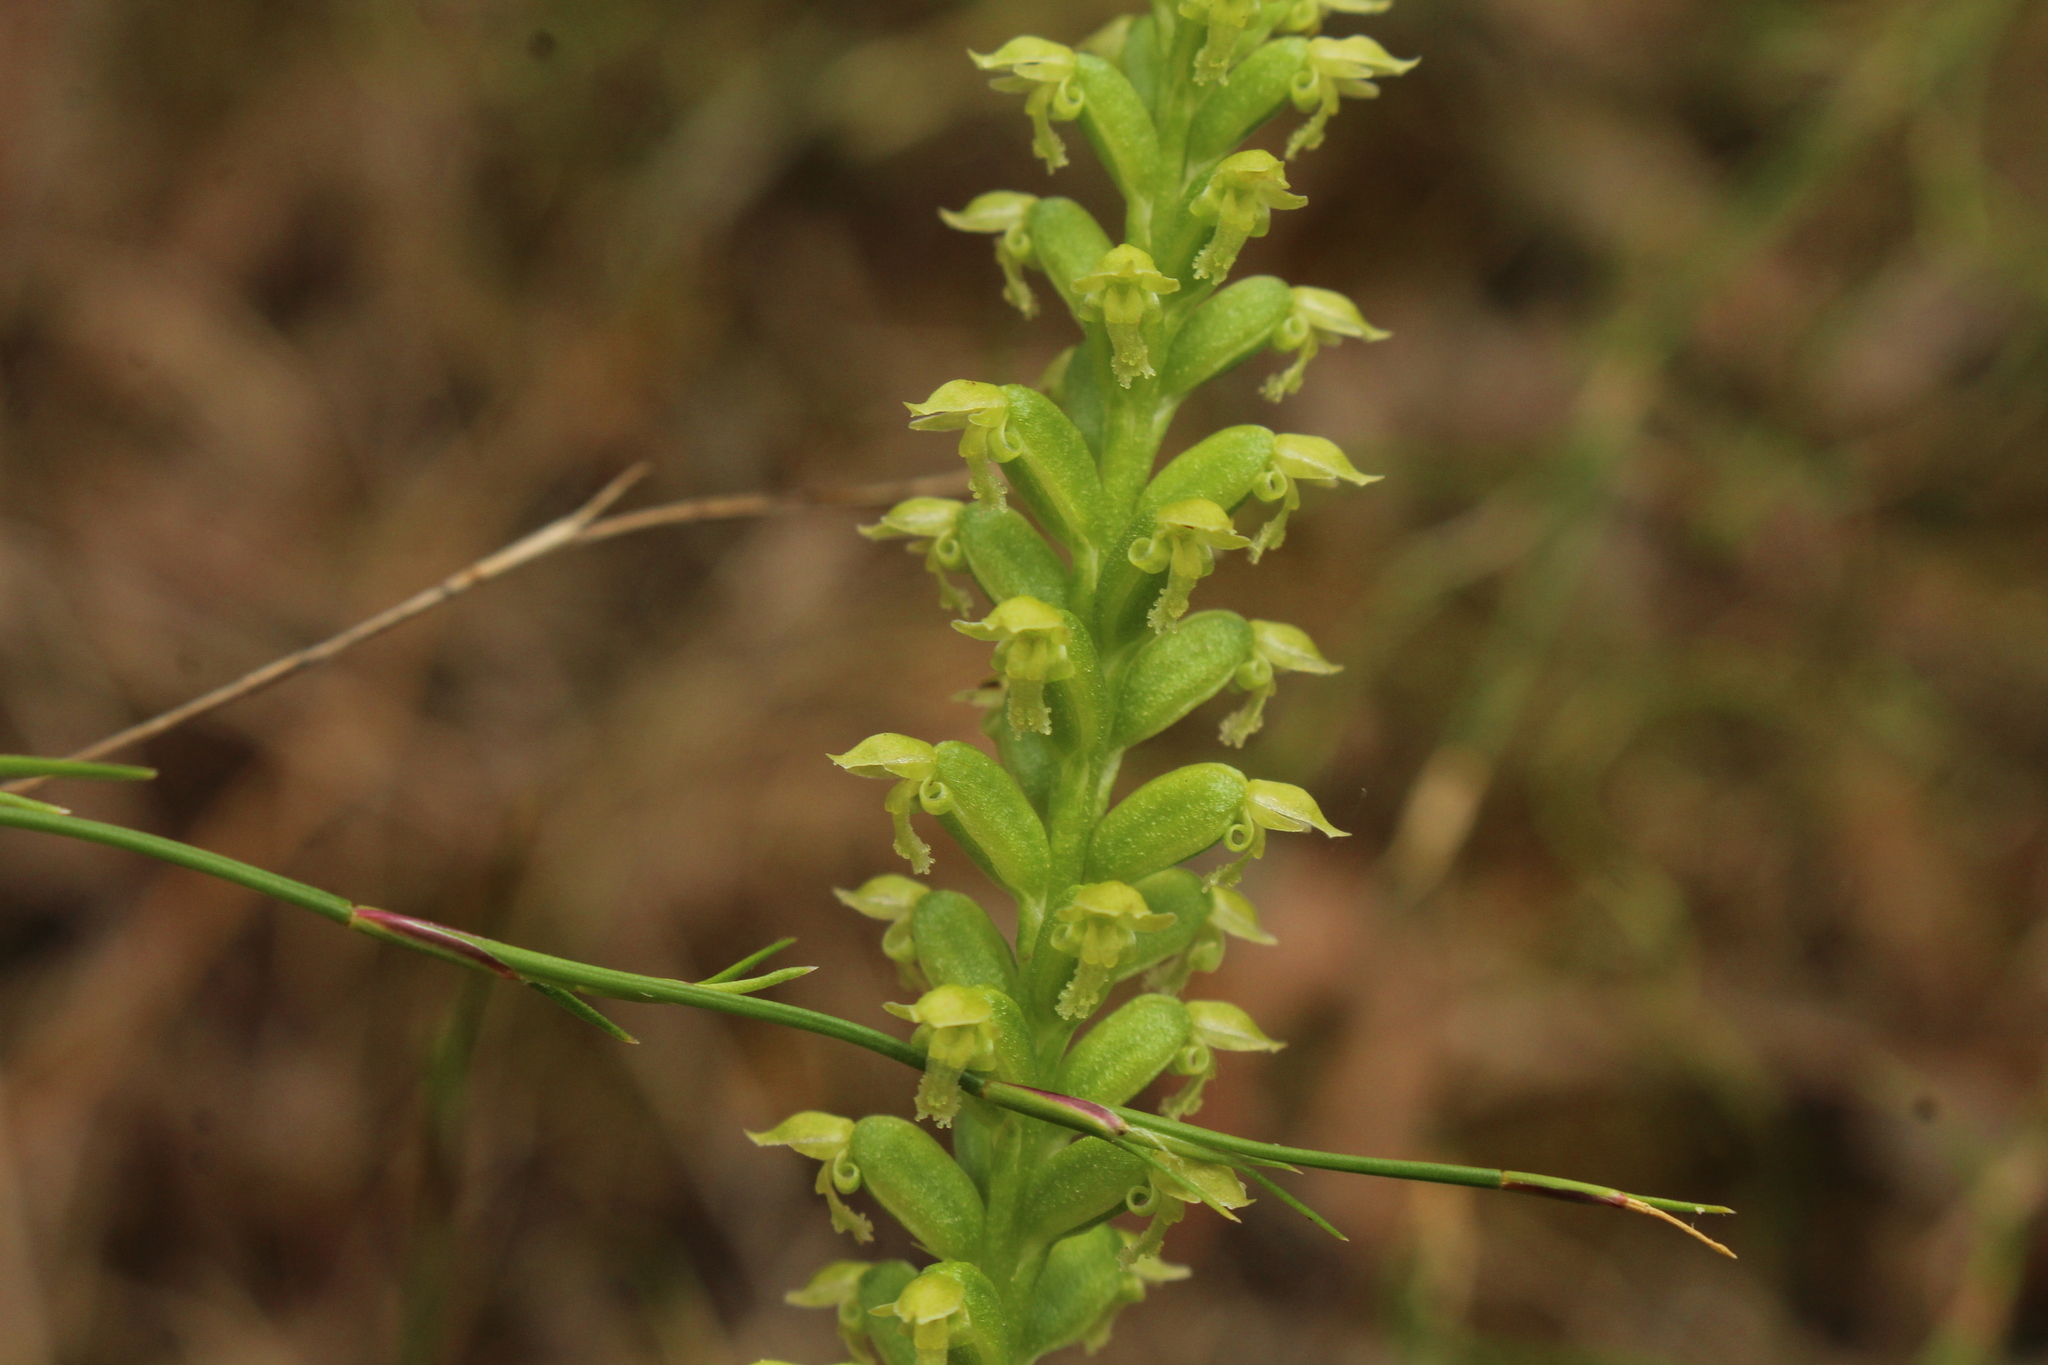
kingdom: Plantae
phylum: Tracheophyta
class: Liliopsida
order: Asparagales
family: Orchidaceae
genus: Microtis
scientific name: Microtis media
